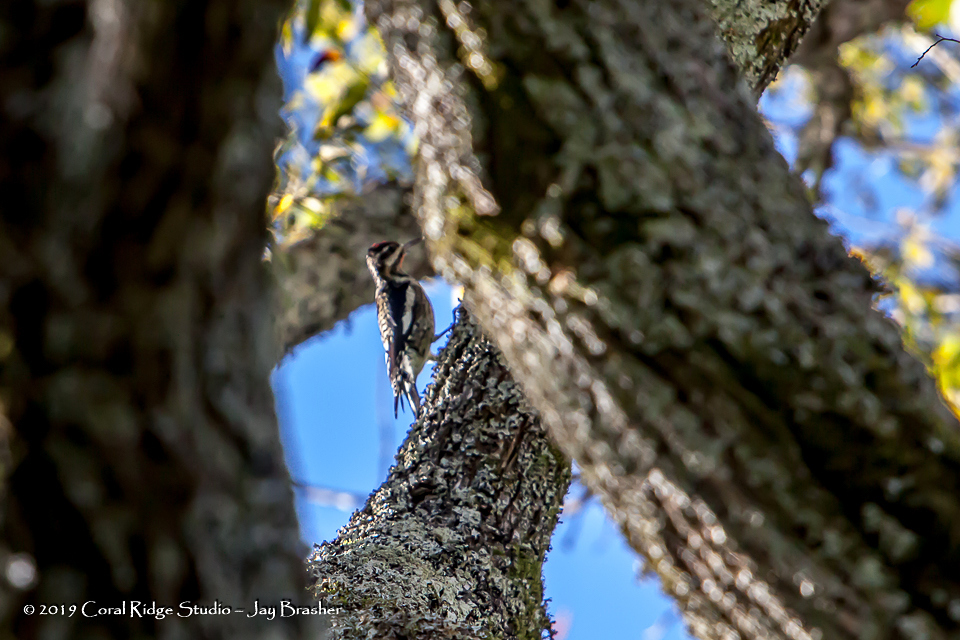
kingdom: Animalia
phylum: Chordata
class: Aves
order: Piciformes
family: Picidae
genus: Sphyrapicus
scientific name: Sphyrapicus varius
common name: Yellow-bellied sapsucker
